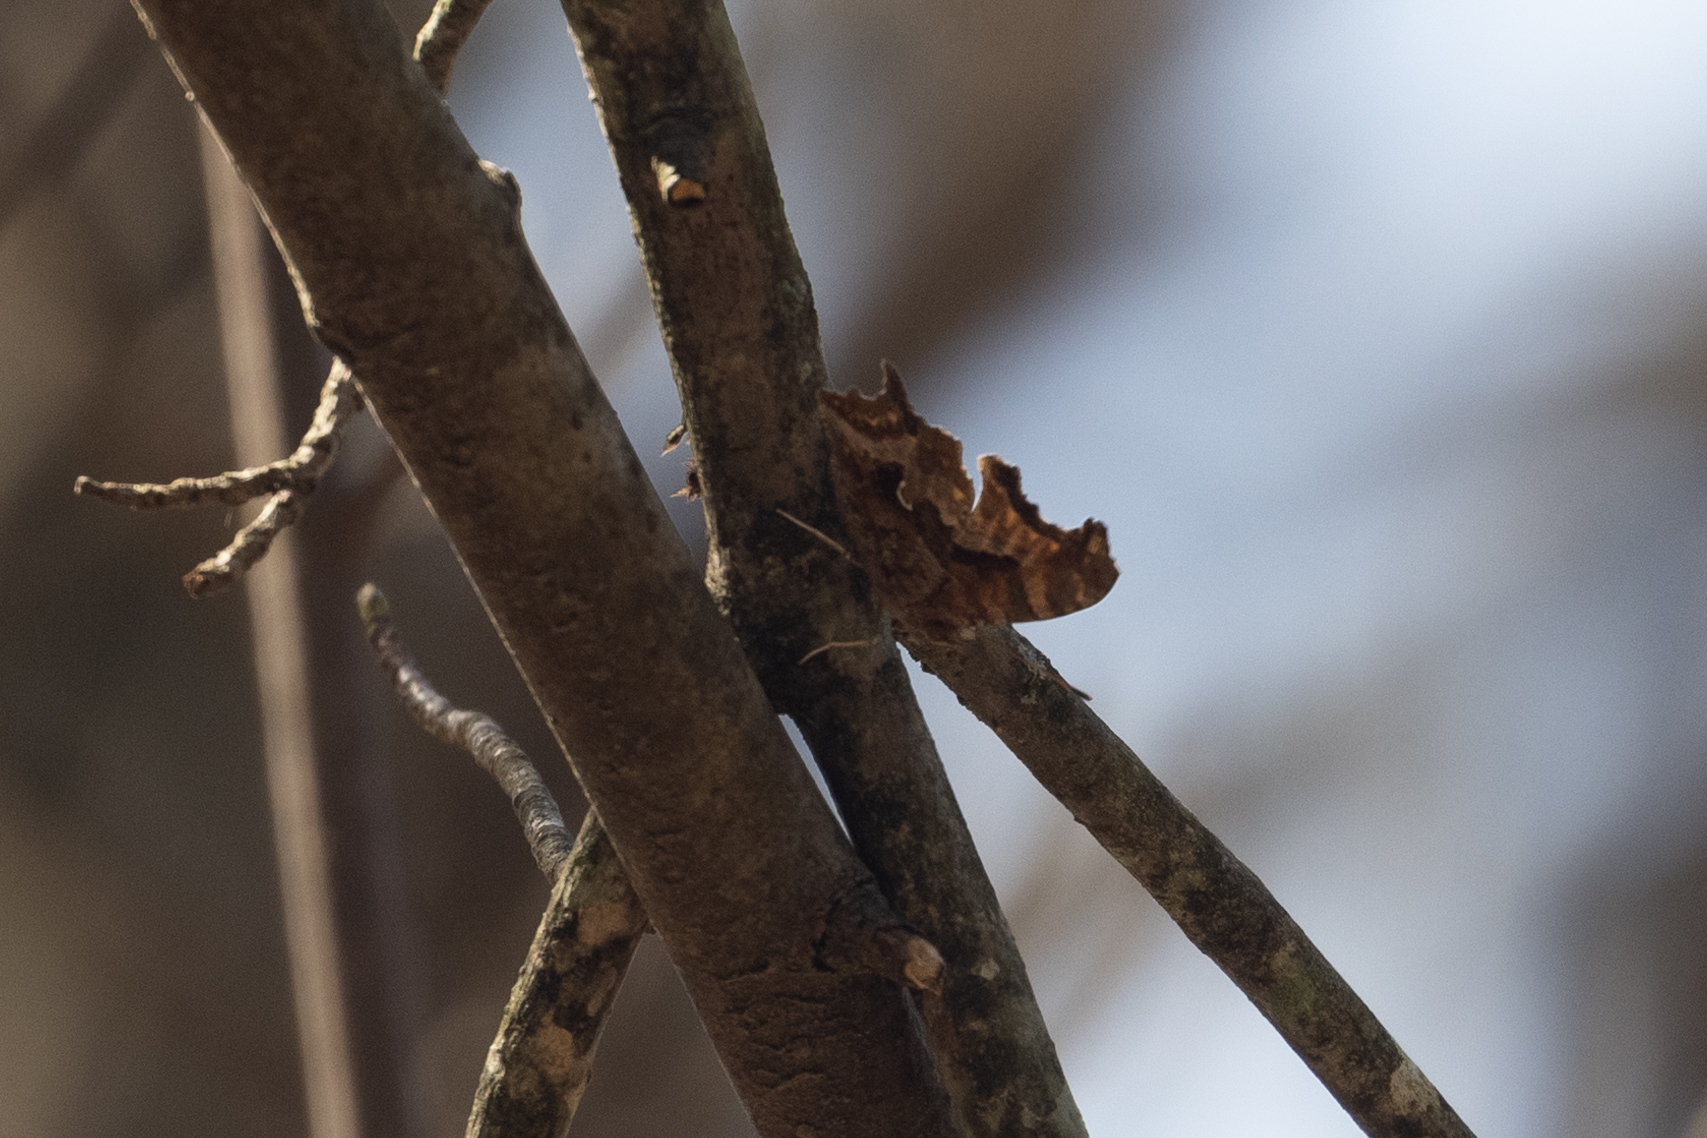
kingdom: Animalia
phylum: Arthropoda
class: Insecta
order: Lepidoptera
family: Nymphalidae
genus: Polygonia
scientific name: Polygonia interrogationis
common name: Question mark
